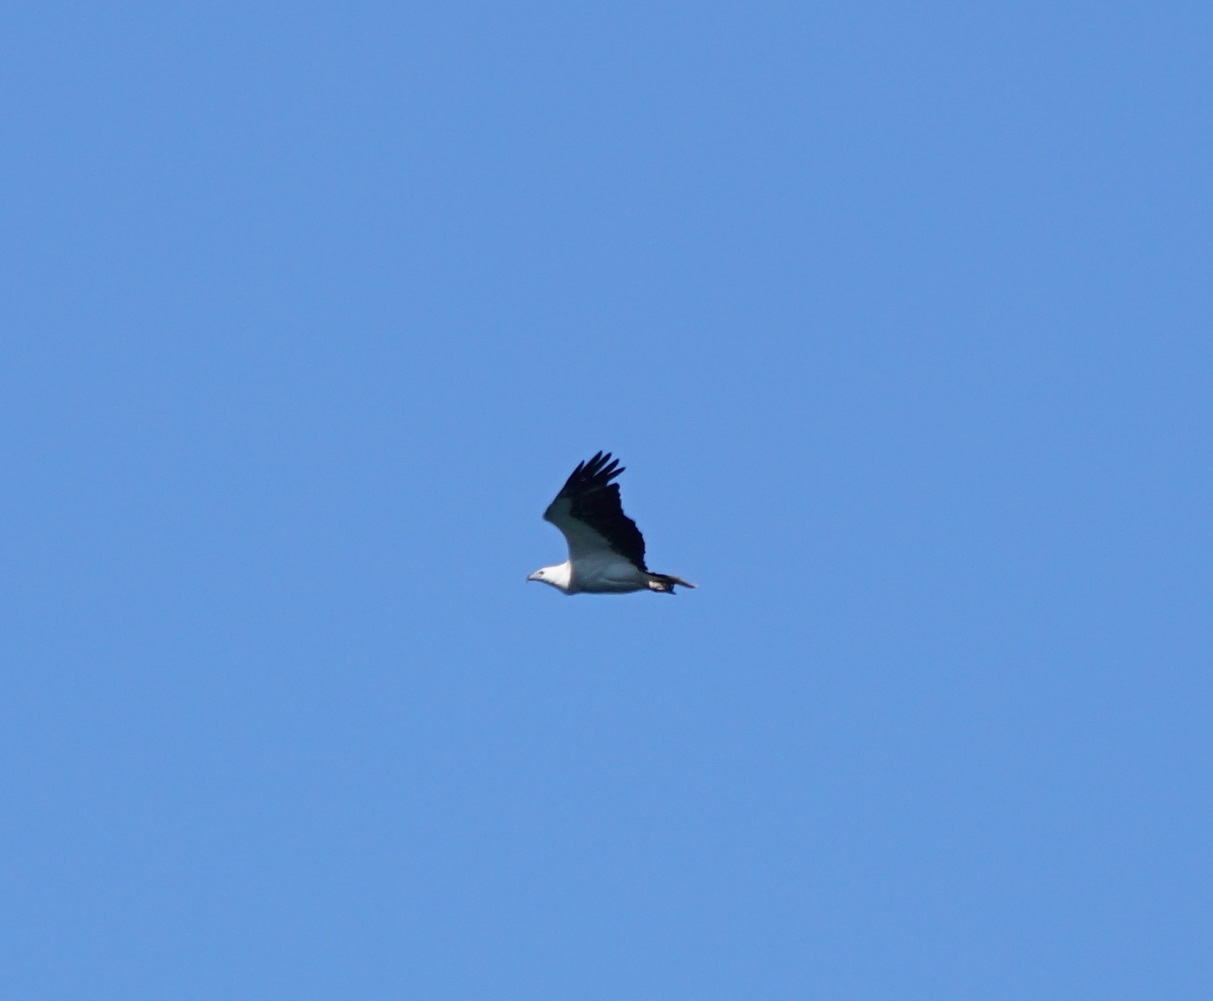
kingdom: Animalia
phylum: Chordata
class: Aves
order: Accipitriformes
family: Accipitridae
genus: Haliaeetus
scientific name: Haliaeetus leucogaster
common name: White-bellied sea eagle
